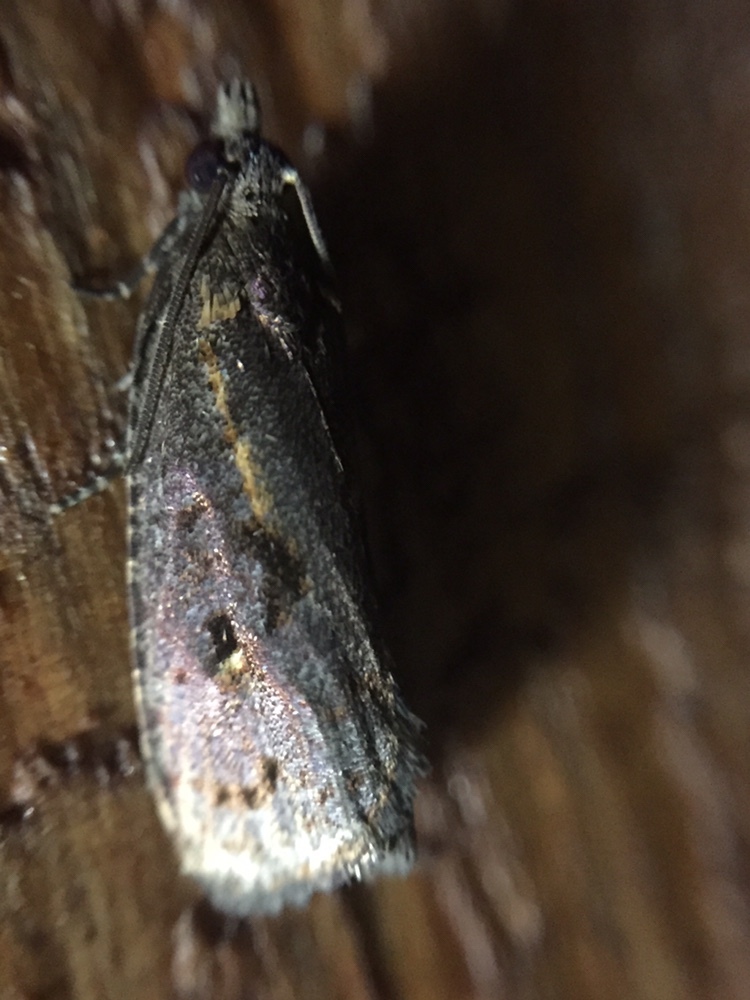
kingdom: Animalia
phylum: Arthropoda
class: Insecta
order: Lepidoptera
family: Tortricidae
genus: Cryptaspasma
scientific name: Cryptaspasma querula
